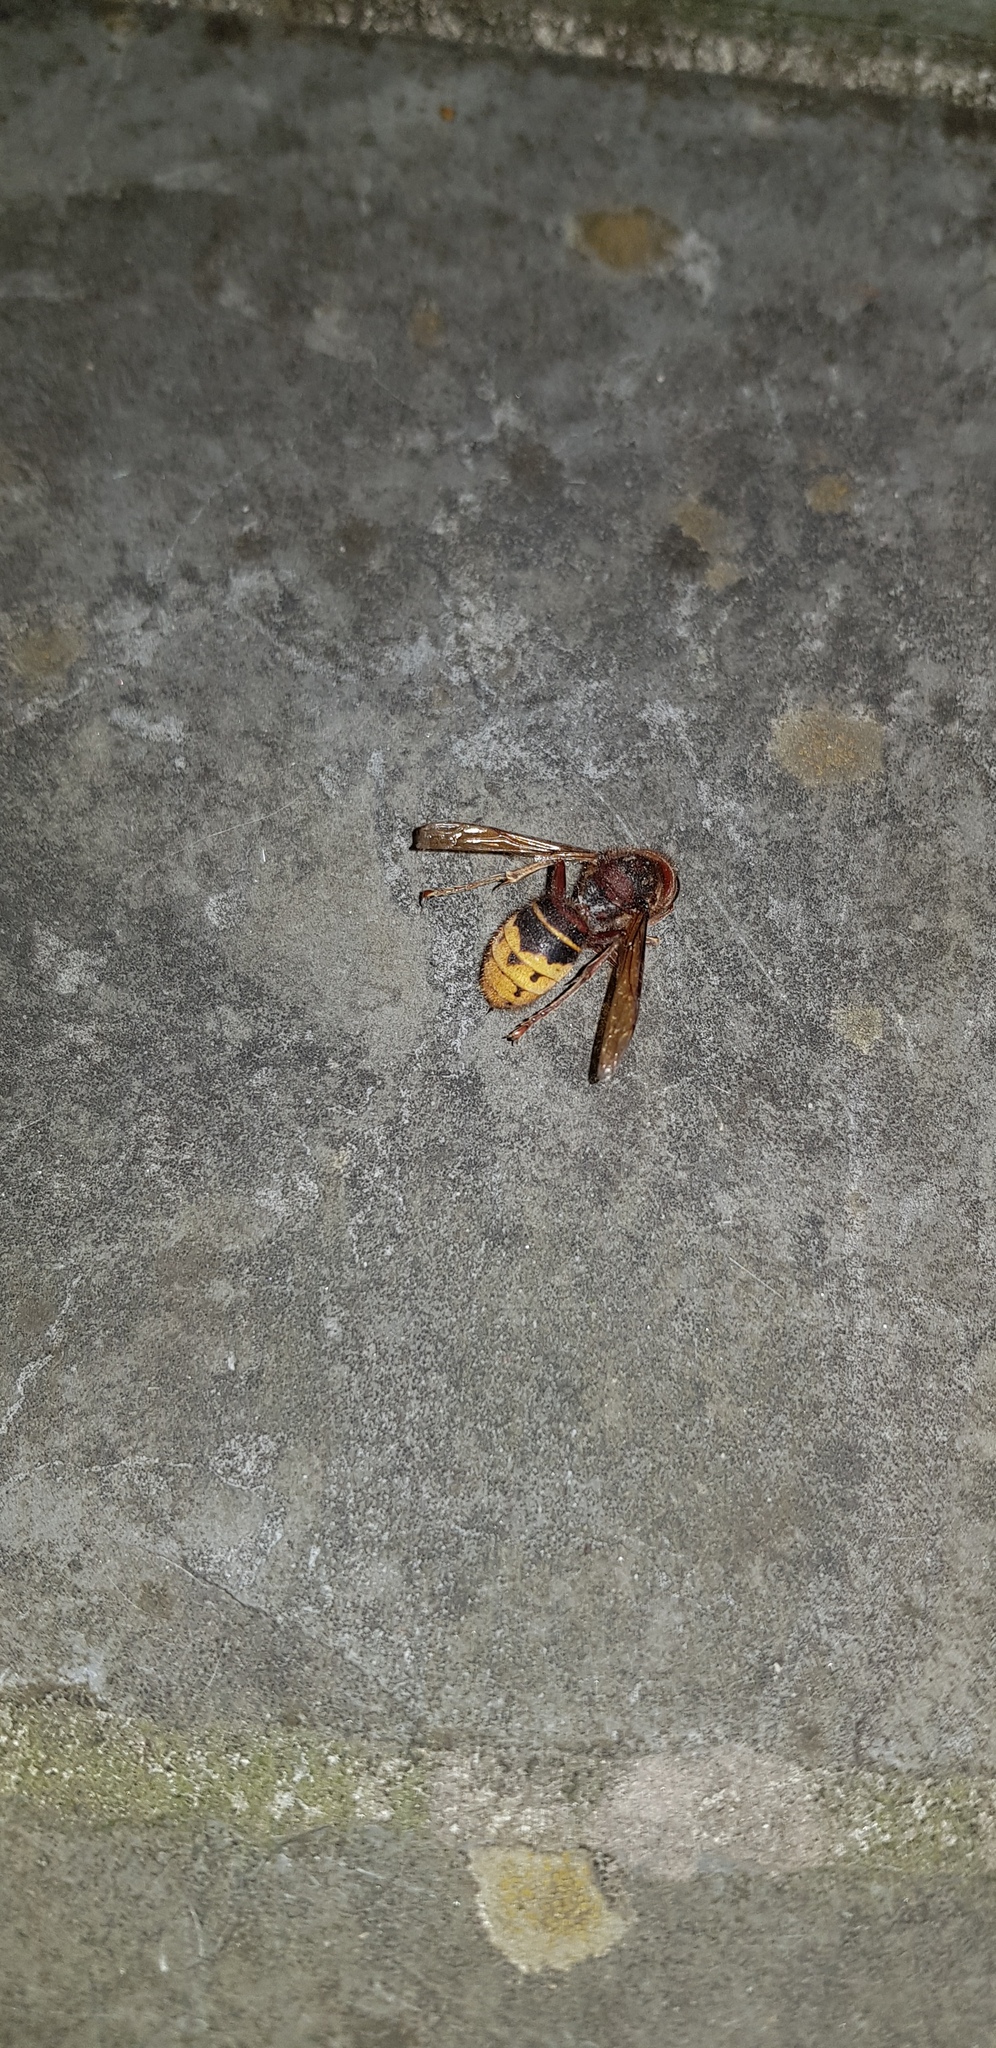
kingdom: Animalia
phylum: Arthropoda
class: Insecta
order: Hymenoptera
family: Vespidae
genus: Vespa
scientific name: Vespa crabro
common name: Hornet
